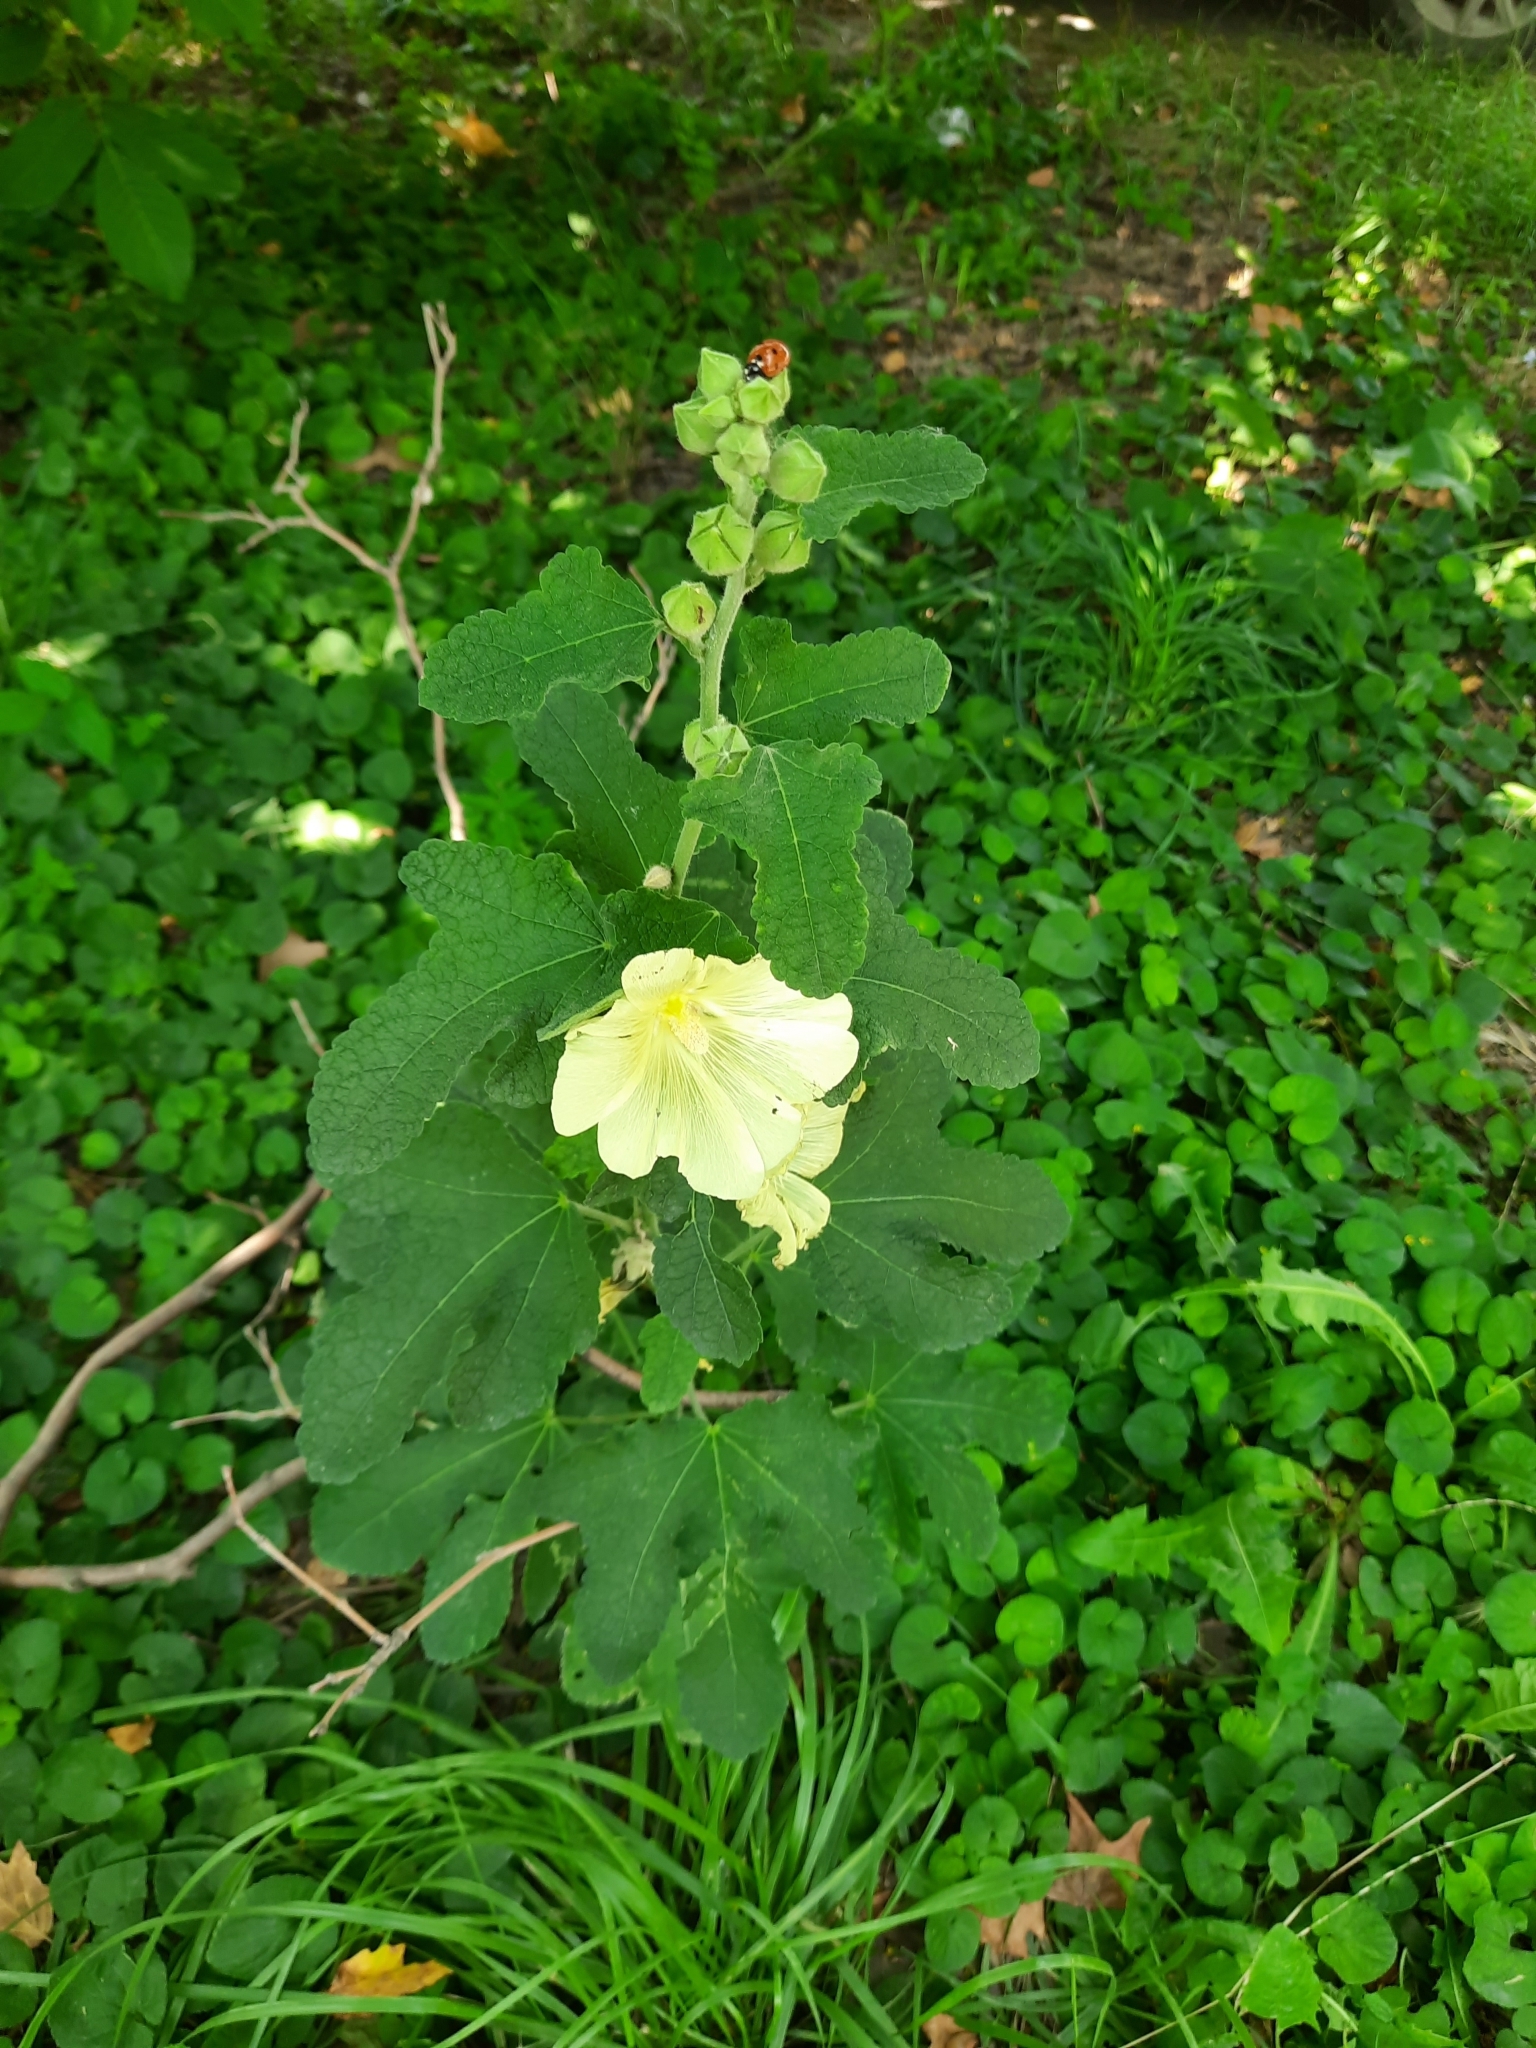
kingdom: Plantae
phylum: Tracheophyta
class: Magnoliopsida
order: Malvales
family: Malvaceae
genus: Alcea
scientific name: Alcea rugosa
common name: Russian hollyhock
